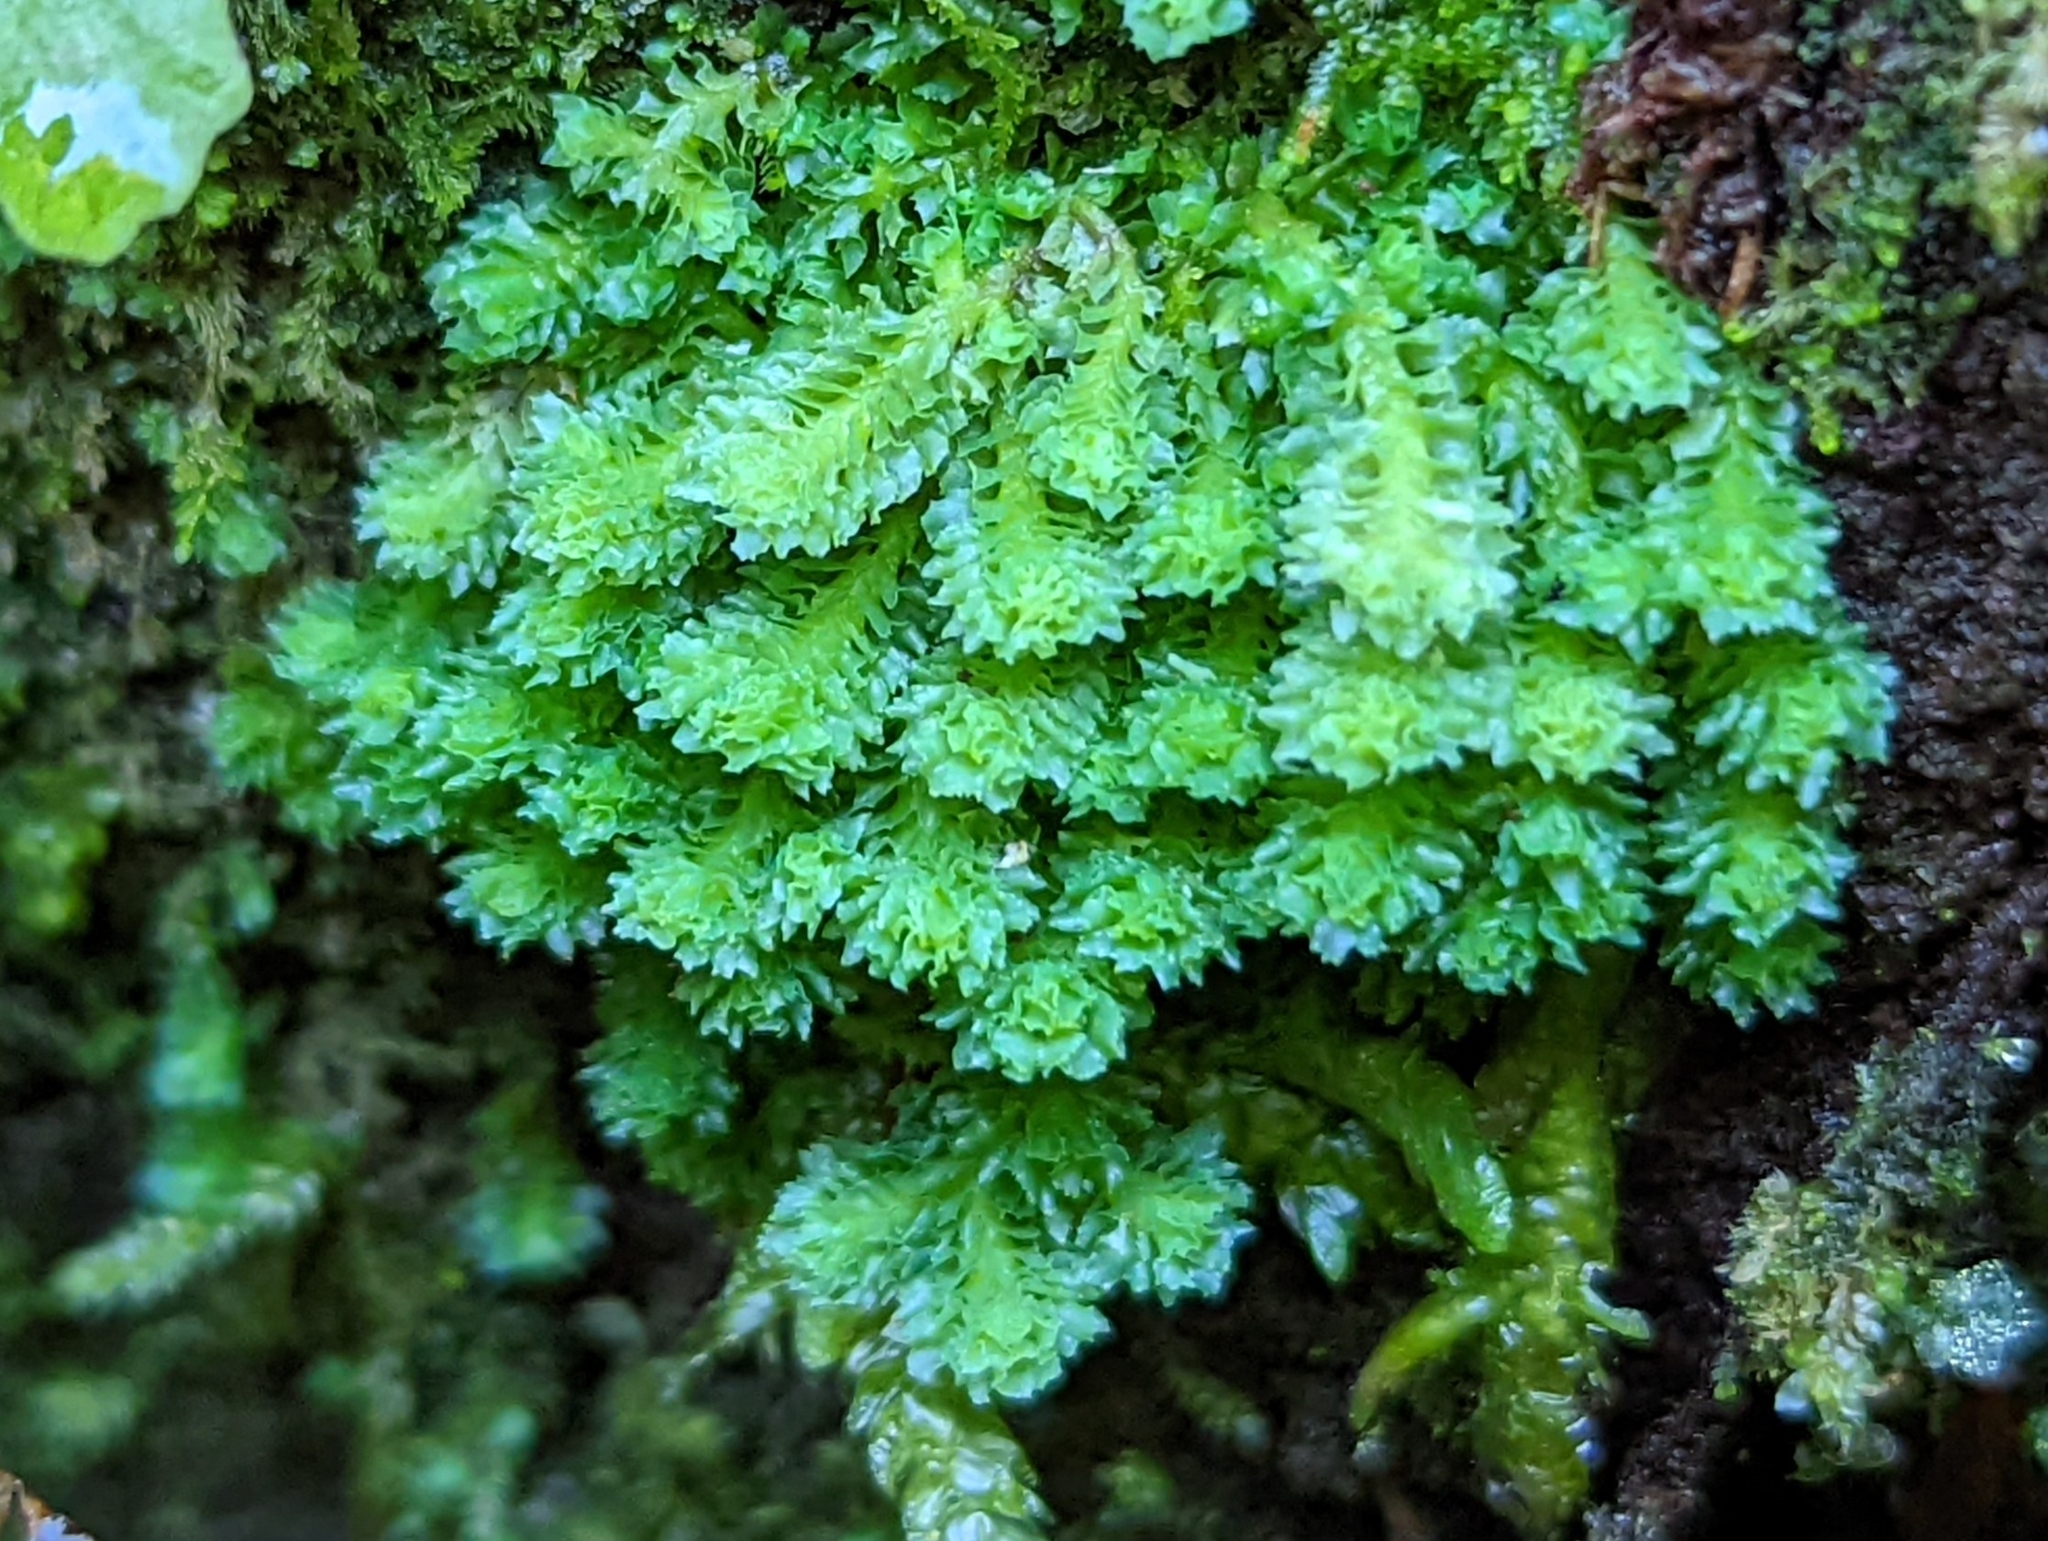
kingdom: Plantae
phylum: Marchantiophyta
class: Jungermanniopsida
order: Jungermanniales
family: Scapaniaceae
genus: Schistochilopsis
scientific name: Schistochilopsis incisa
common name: Jagged notchwort
